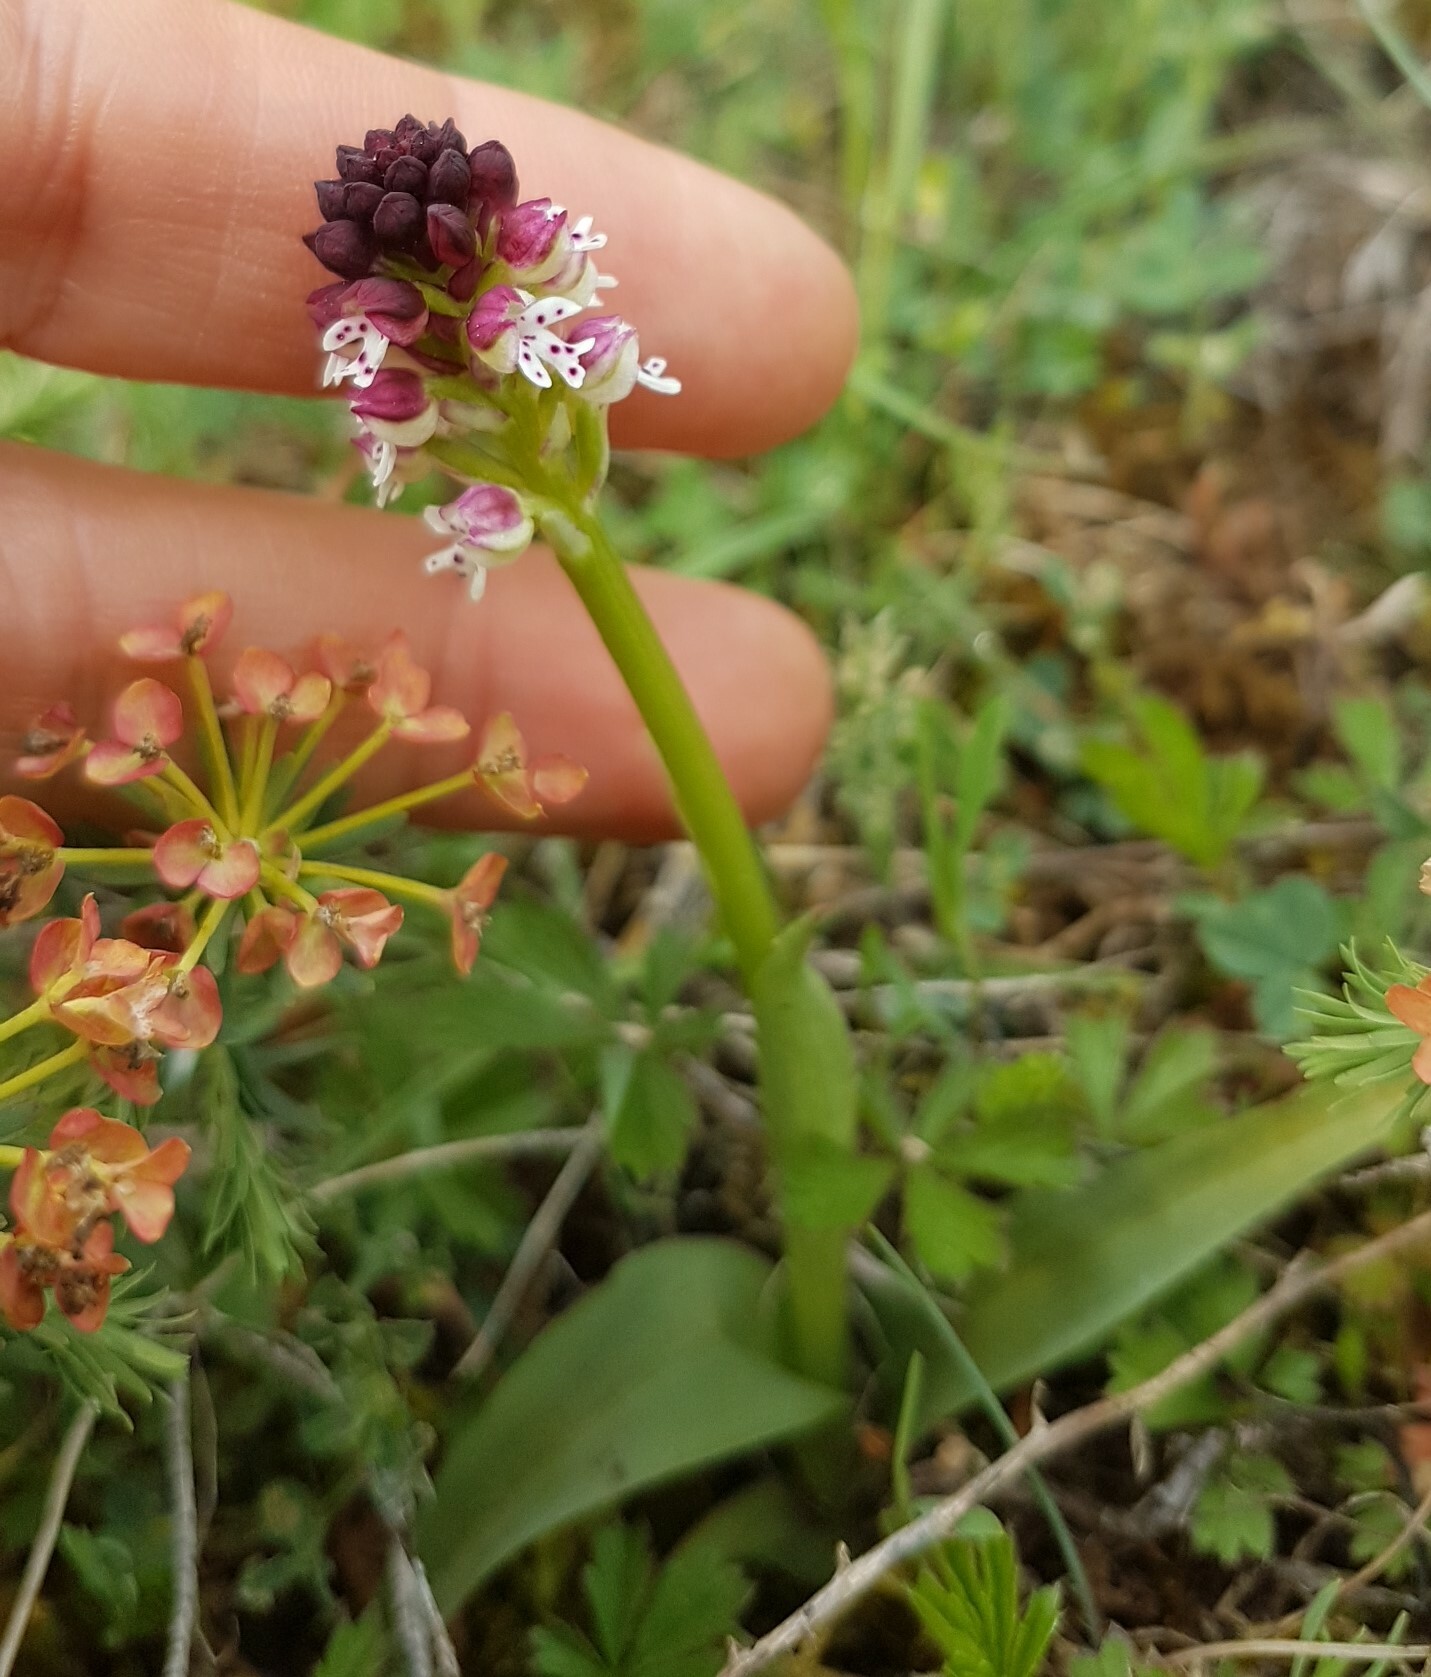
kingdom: Plantae
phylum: Tracheophyta
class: Liliopsida
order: Asparagales
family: Orchidaceae
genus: Neotinea
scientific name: Neotinea ustulata
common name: Burnt orchid
